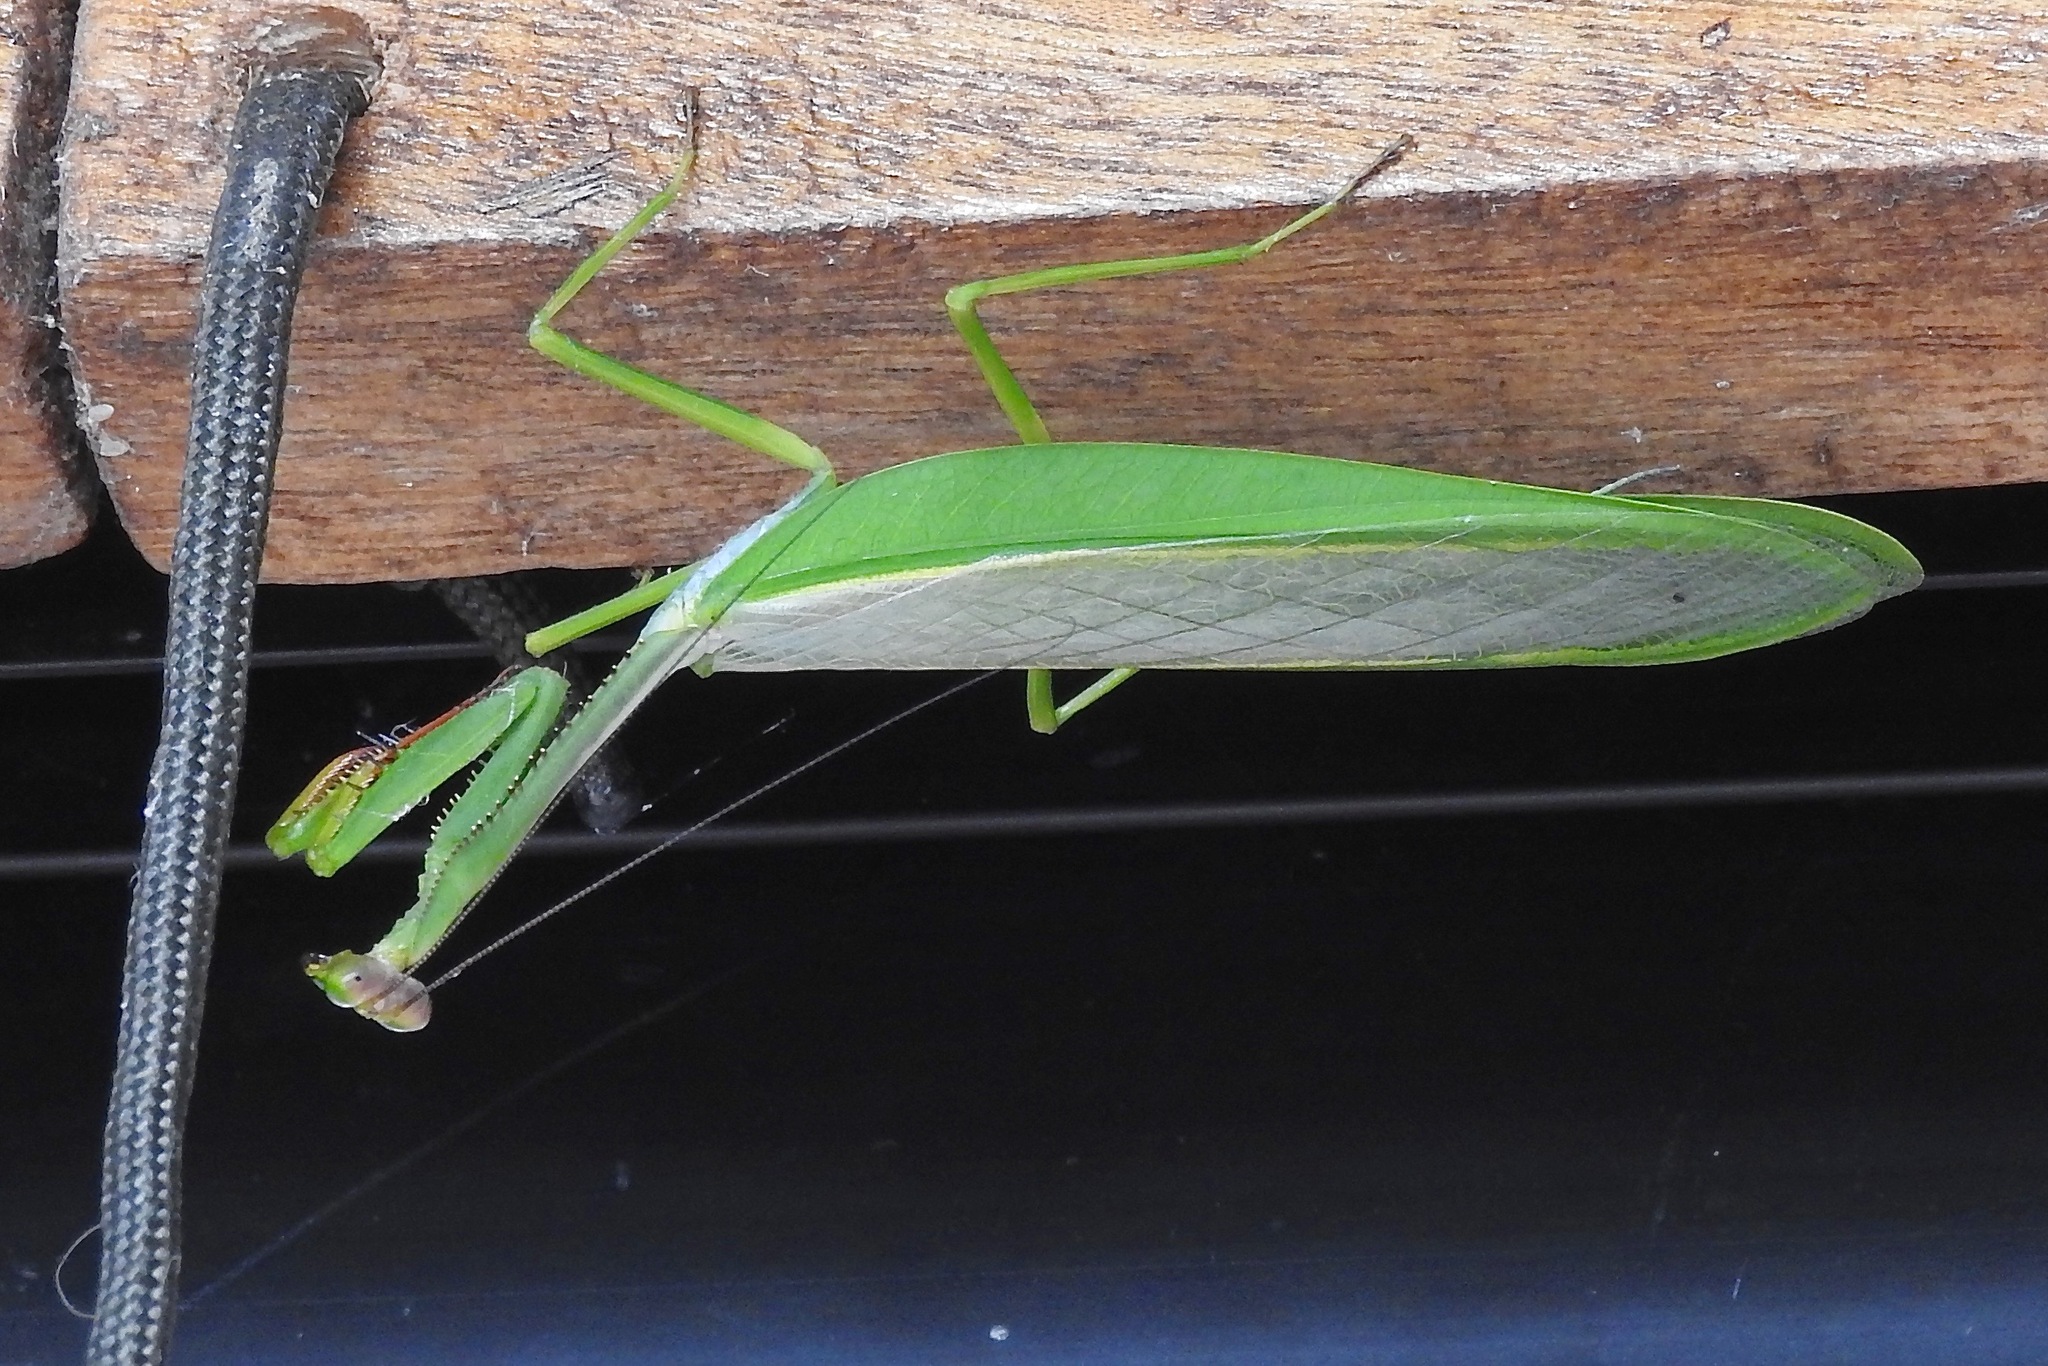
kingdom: Animalia
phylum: Arthropoda
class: Insecta
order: Mantodea
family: Mantidae
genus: Catoxyopsis
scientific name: Catoxyopsis dubiosa
